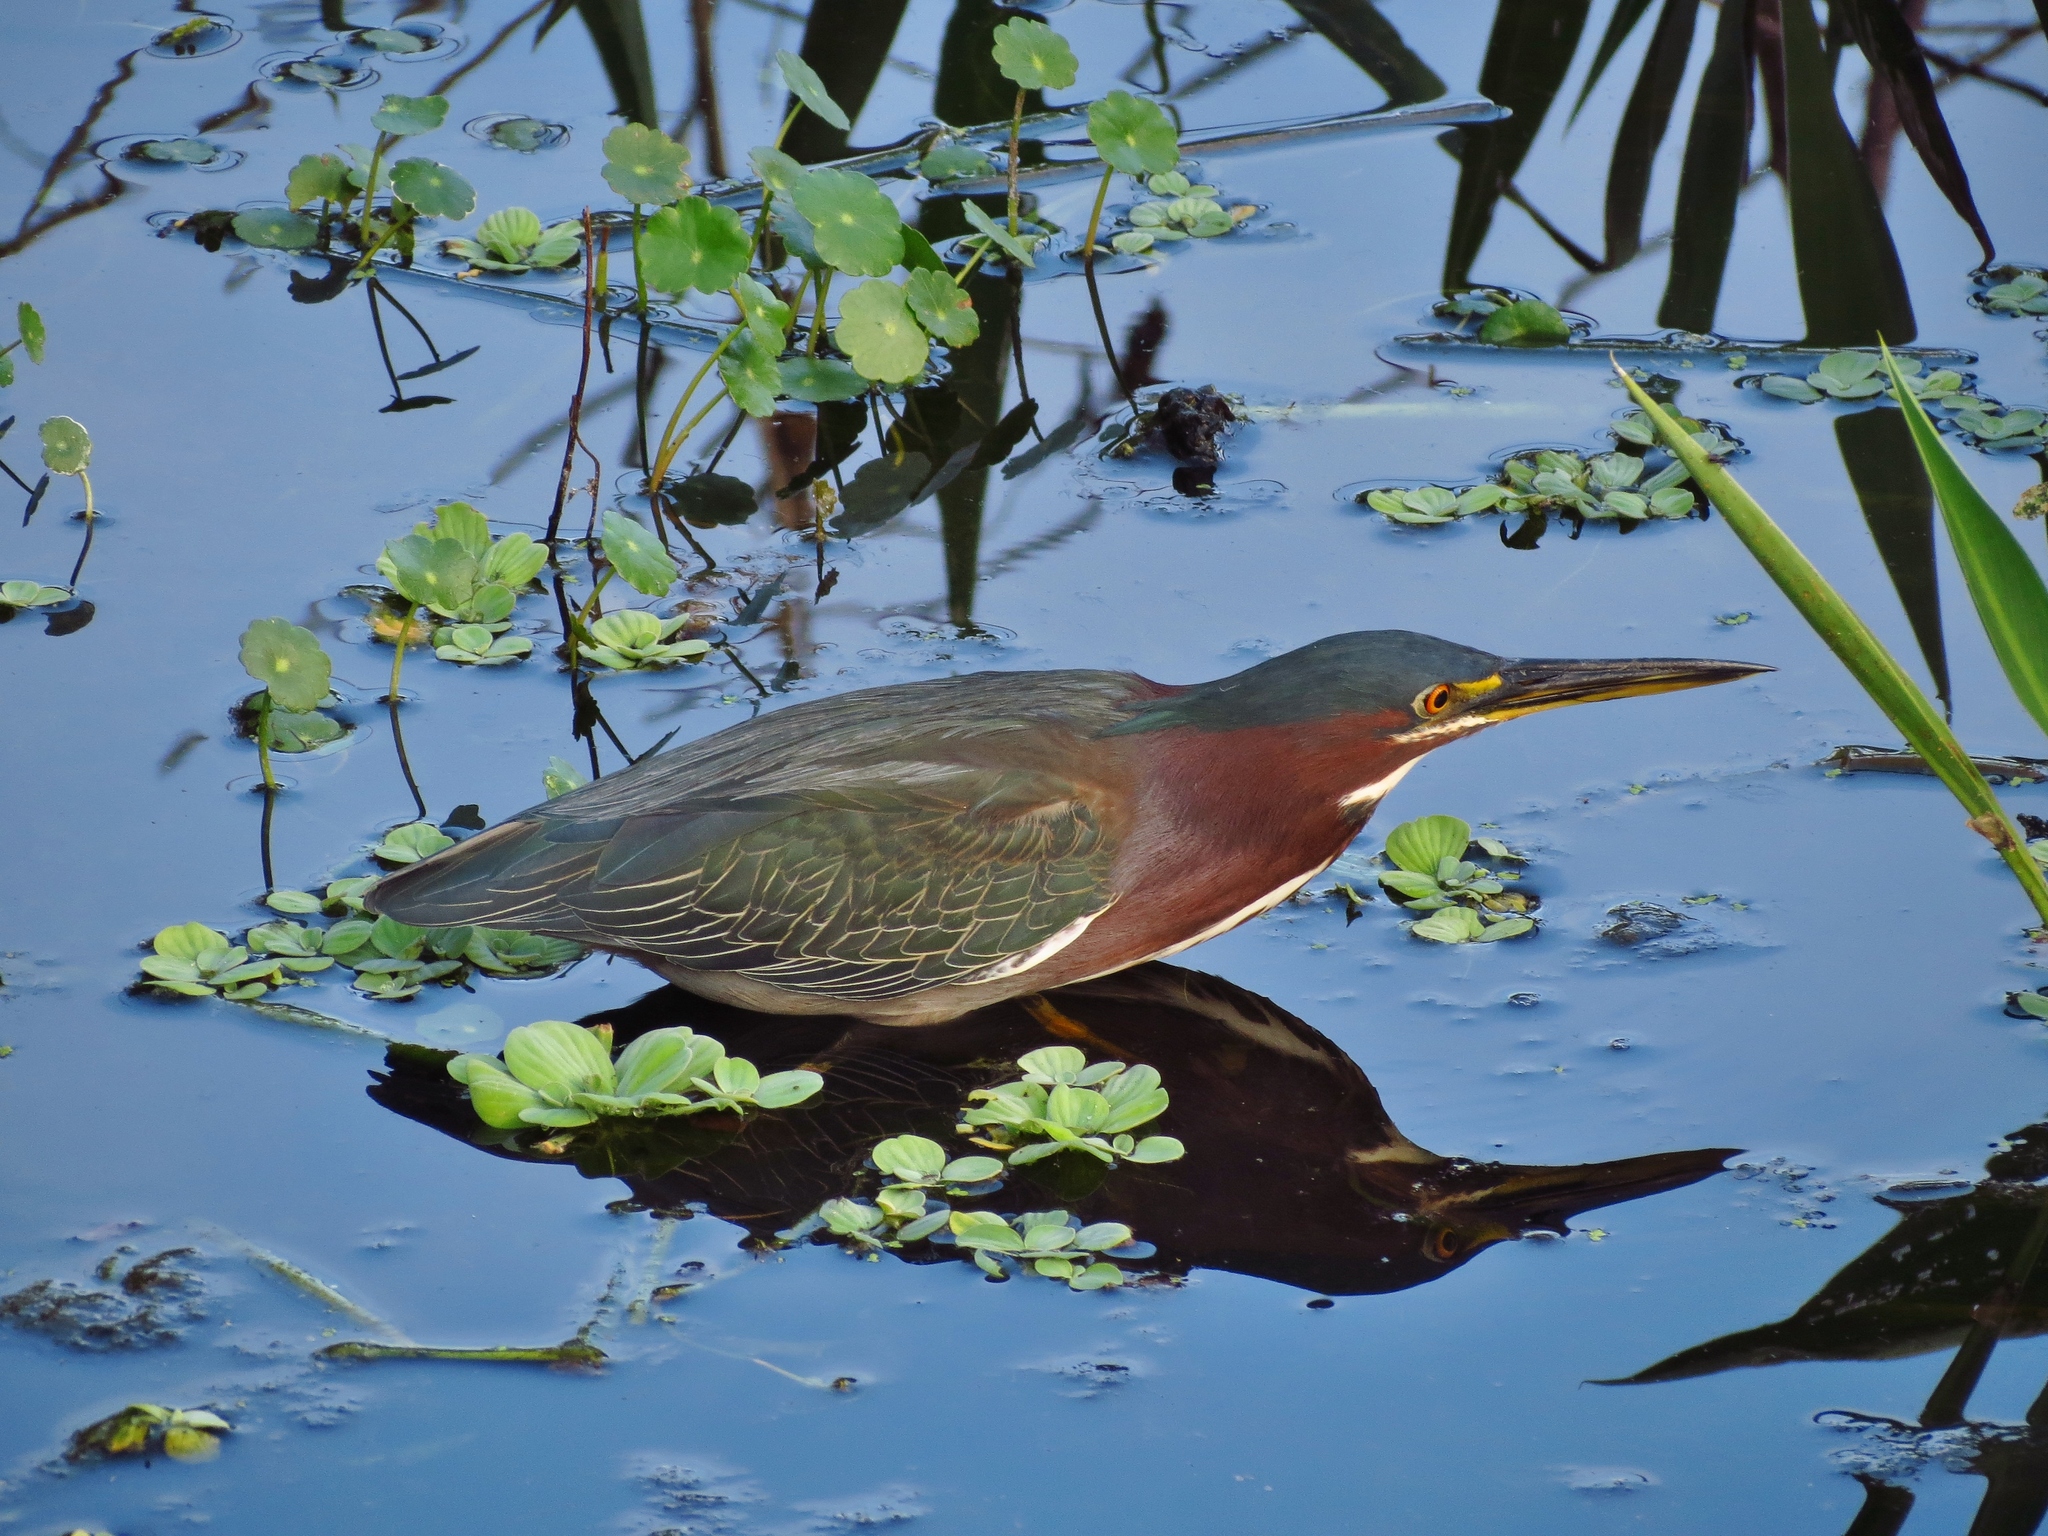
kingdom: Animalia
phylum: Chordata
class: Aves
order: Pelecaniformes
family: Ardeidae
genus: Butorides
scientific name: Butorides virescens
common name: Green heron
